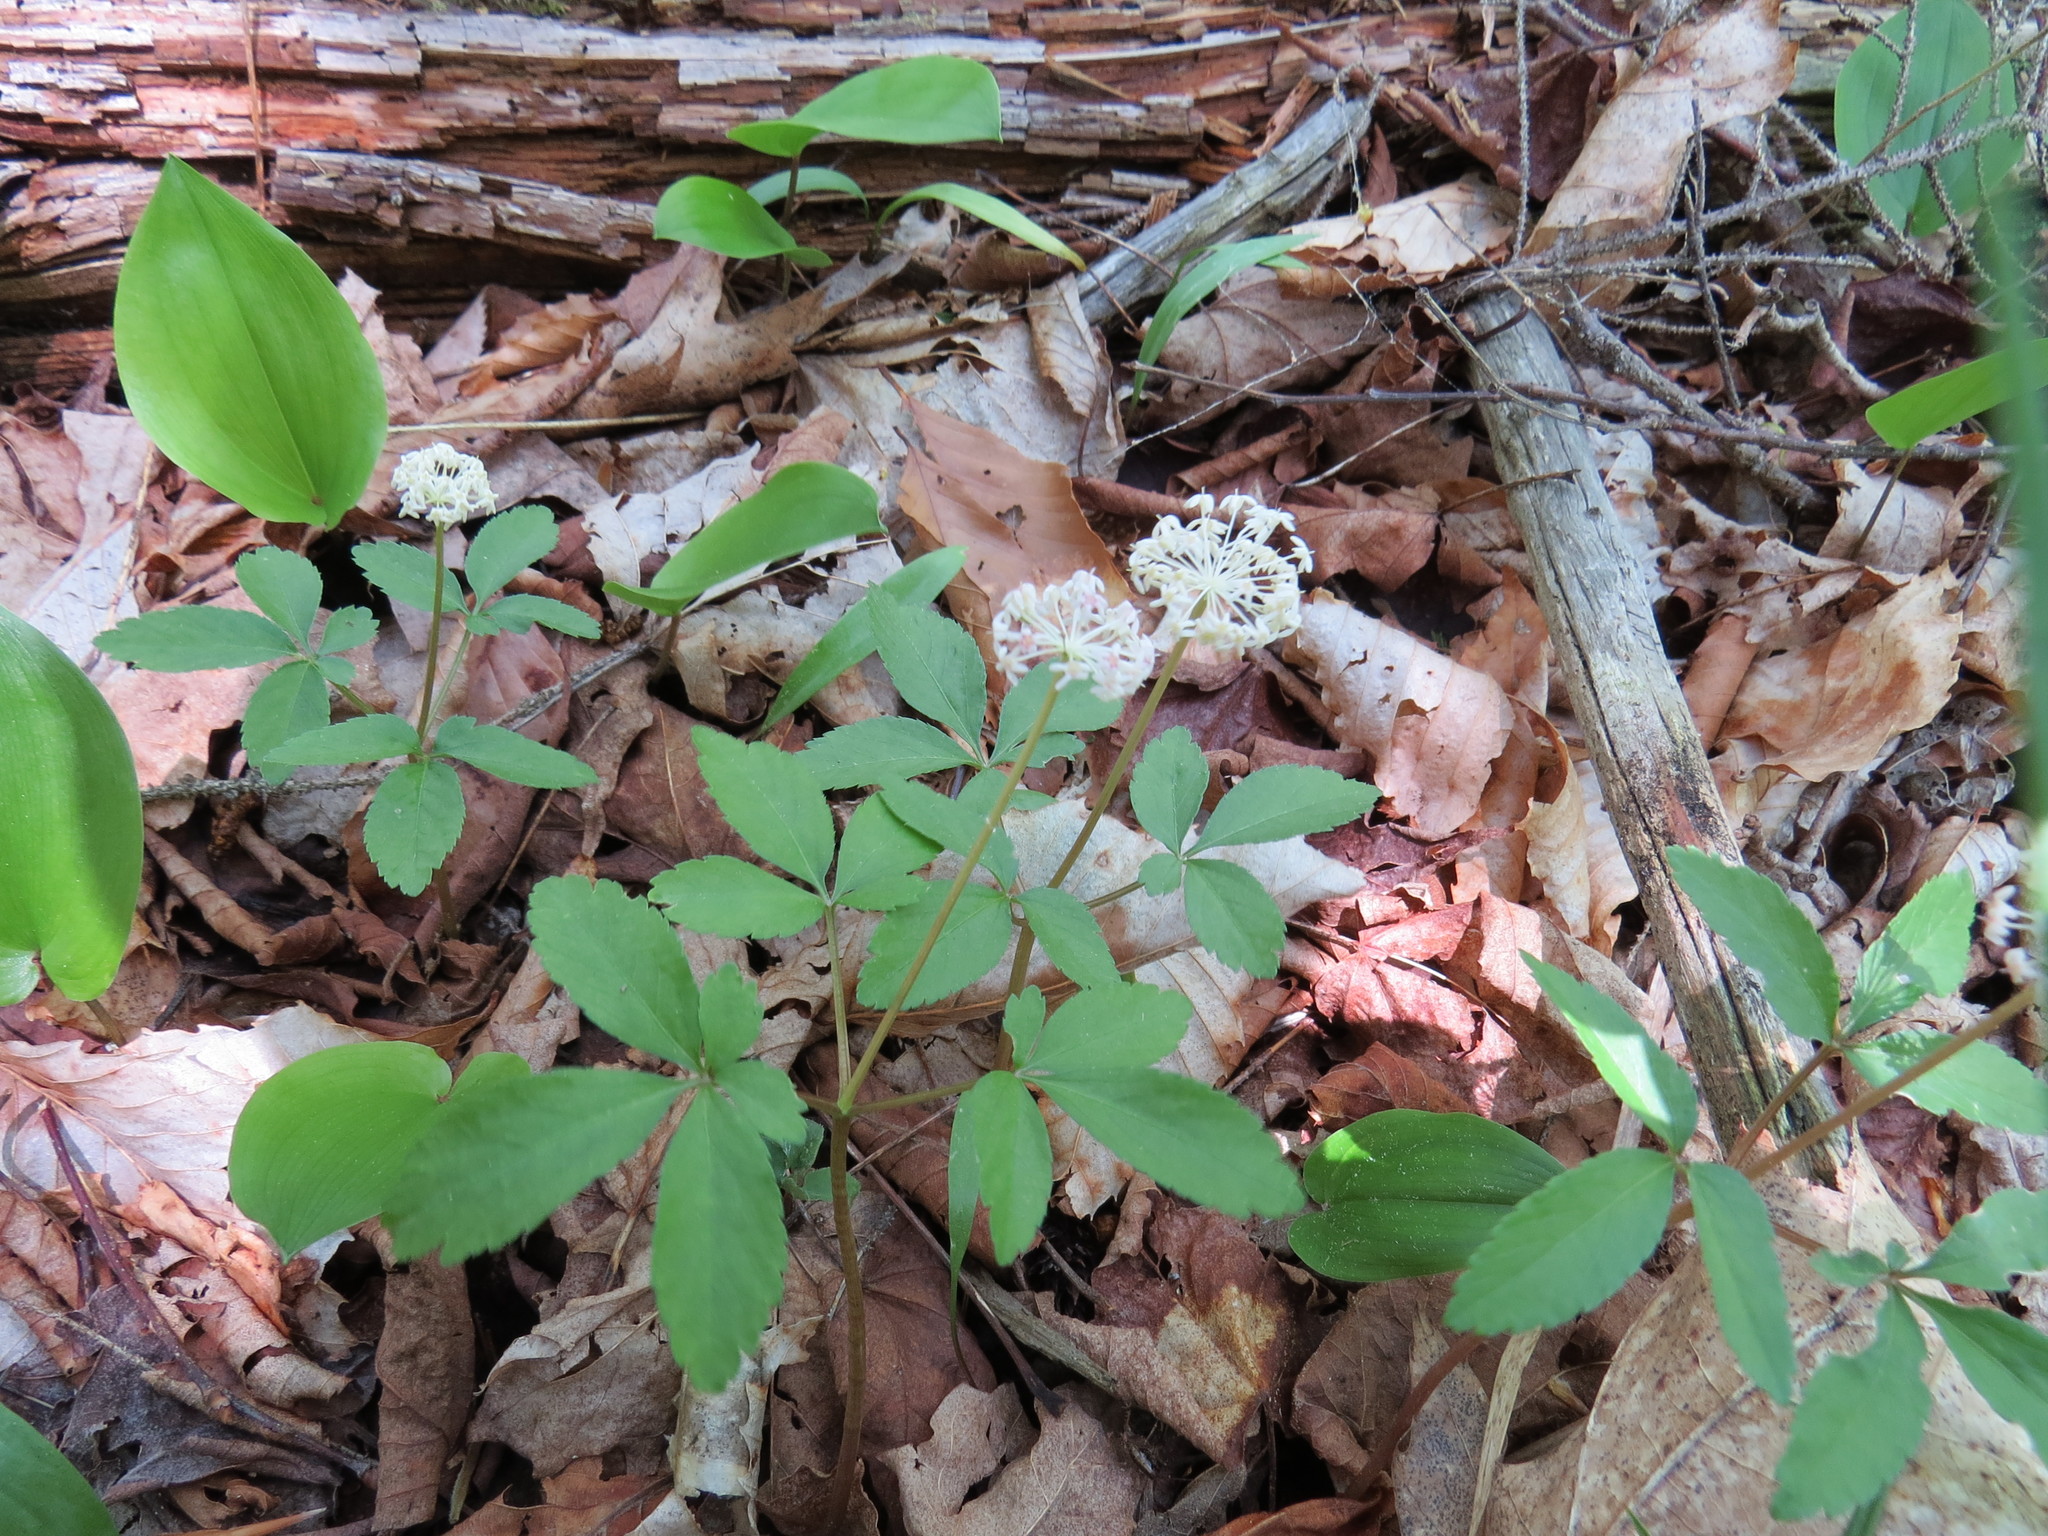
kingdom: Plantae
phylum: Tracheophyta
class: Magnoliopsida
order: Apiales
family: Araliaceae
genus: Panax
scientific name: Panax trifolius
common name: Dwarf ginseng
